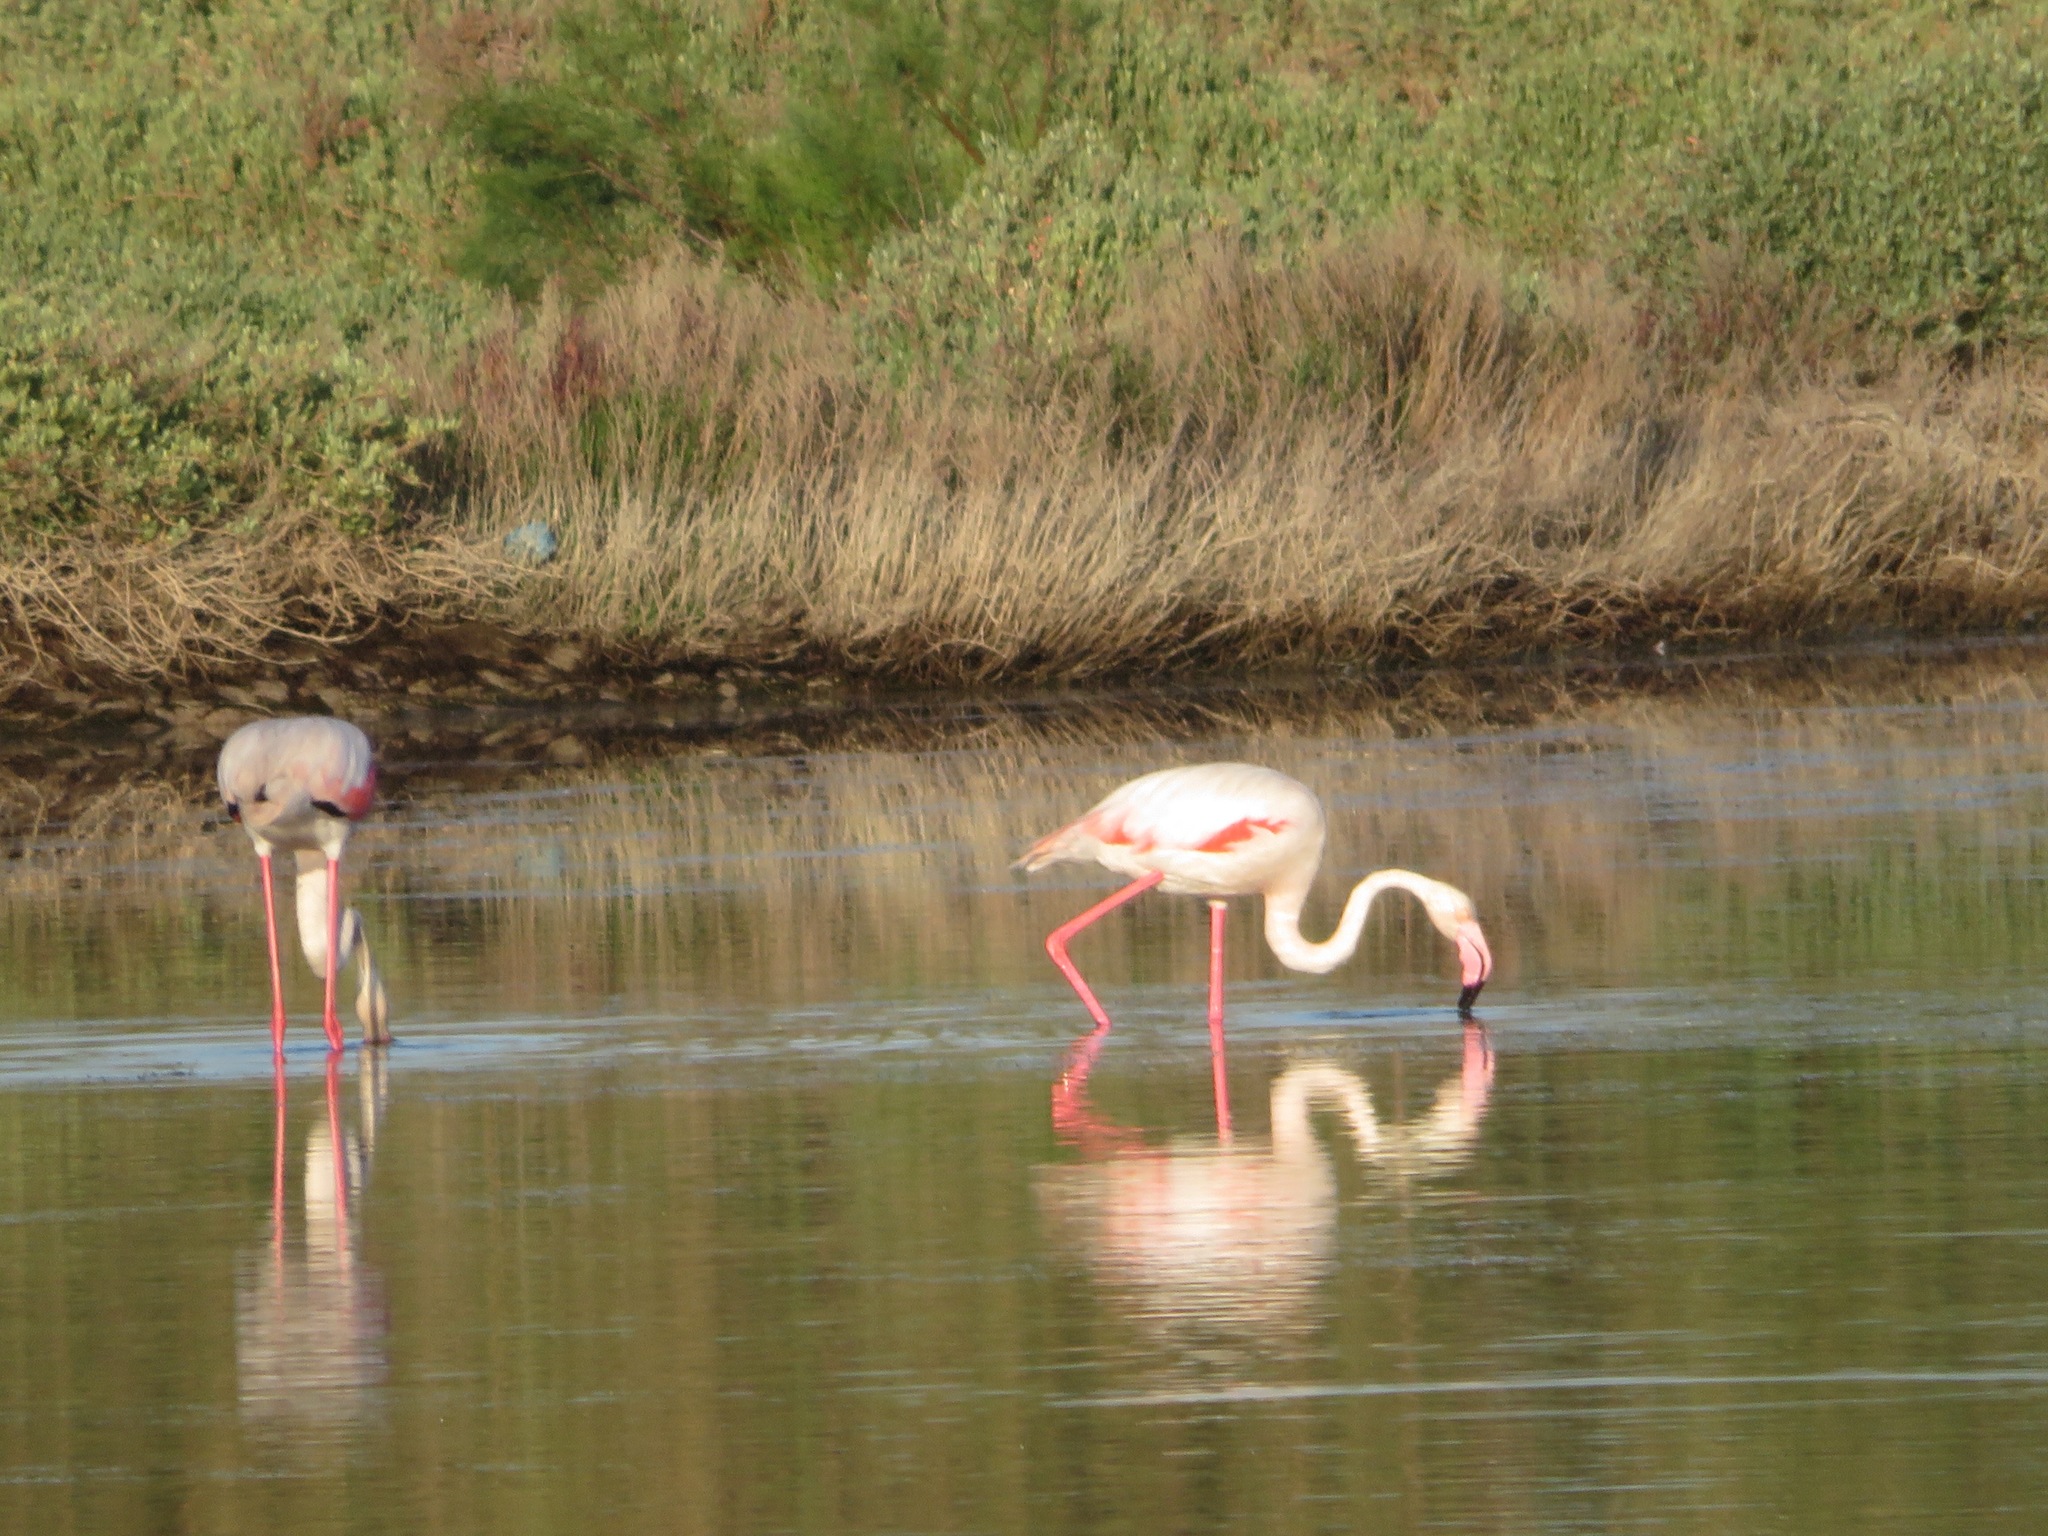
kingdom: Animalia
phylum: Chordata
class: Aves
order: Phoenicopteriformes
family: Phoenicopteridae
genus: Phoenicopterus
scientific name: Phoenicopterus roseus
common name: Greater flamingo
